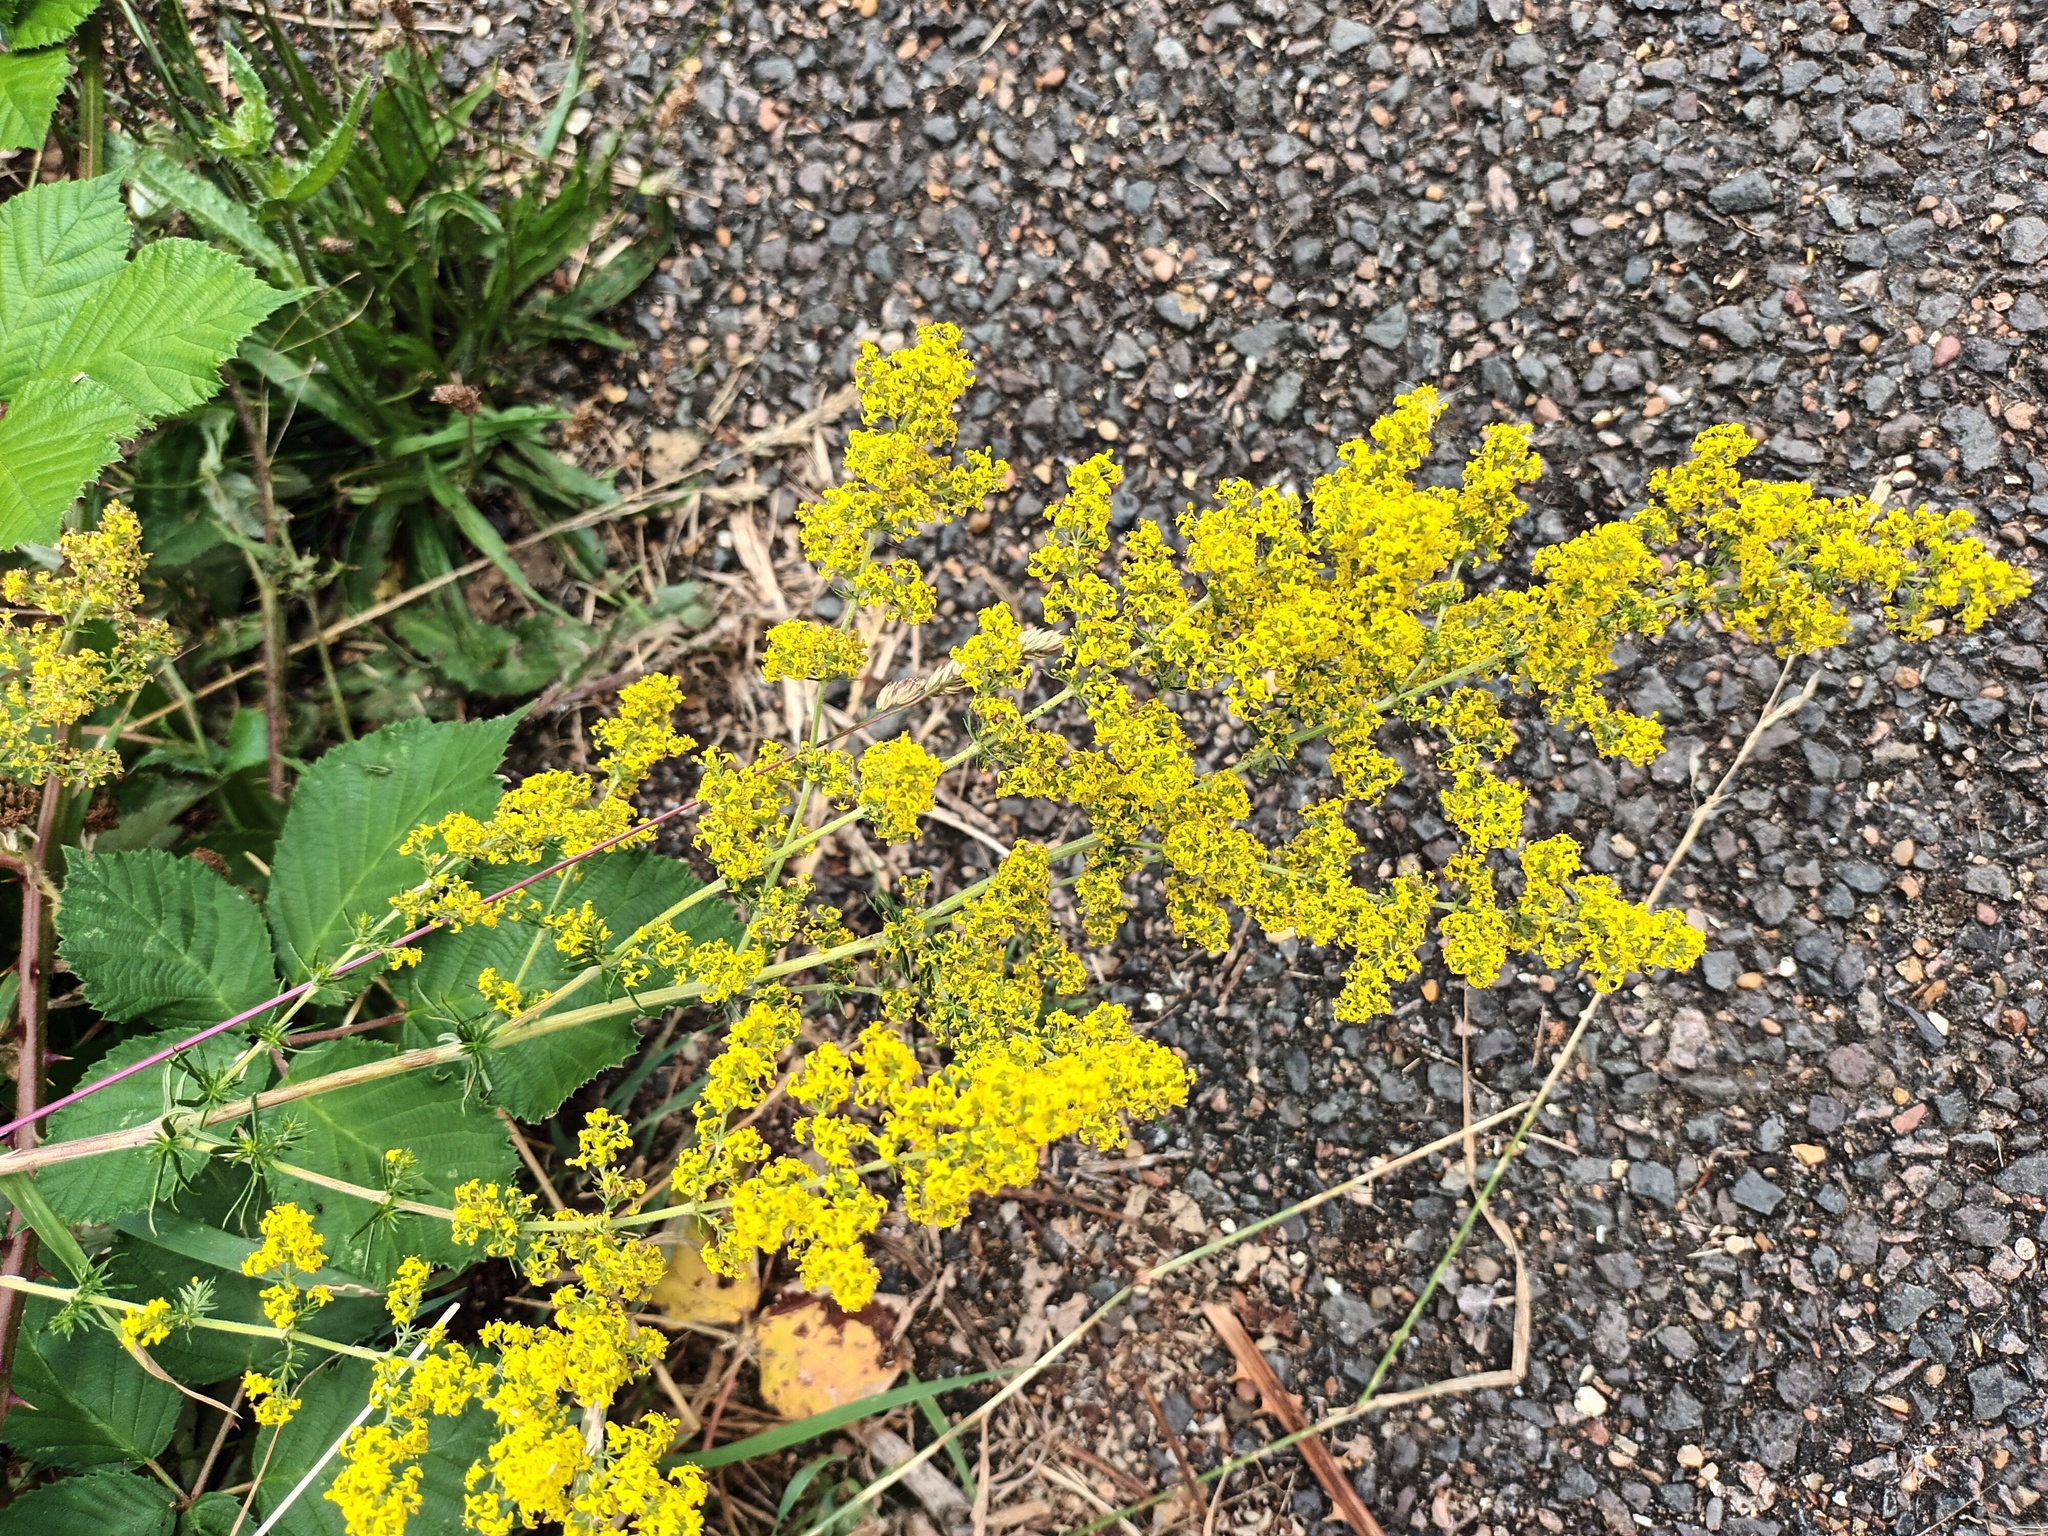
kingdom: Plantae
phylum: Tracheophyta
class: Magnoliopsida
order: Gentianales
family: Rubiaceae
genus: Galium
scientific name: Galium verum
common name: Lady's bedstraw
